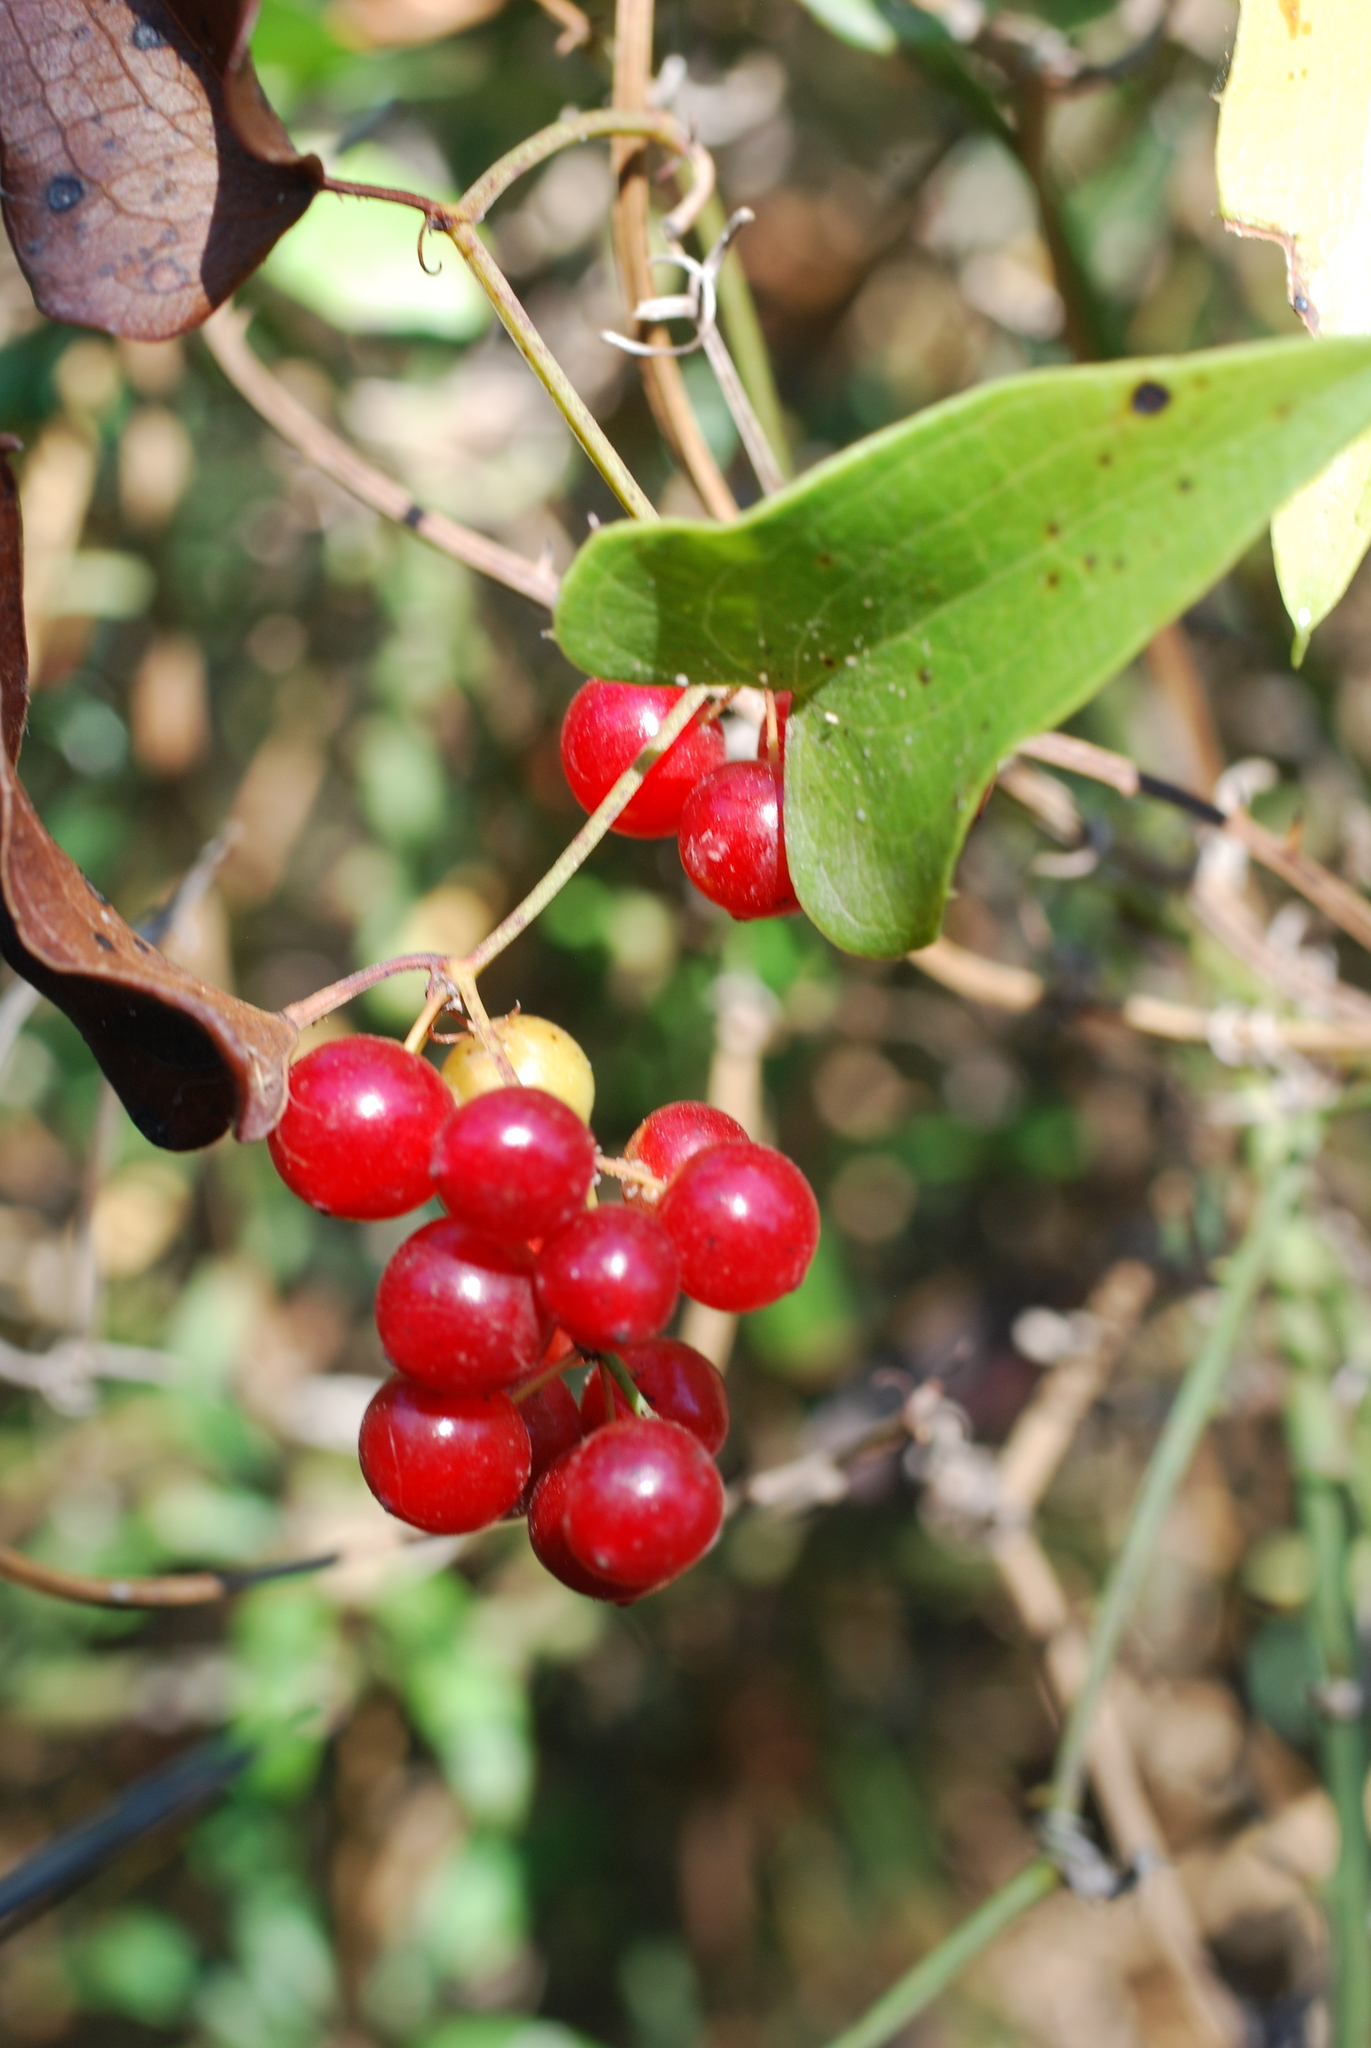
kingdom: Plantae
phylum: Tracheophyta
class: Liliopsida
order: Liliales
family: Smilacaceae
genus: Smilax
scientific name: Smilax aspera
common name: Common smilax
